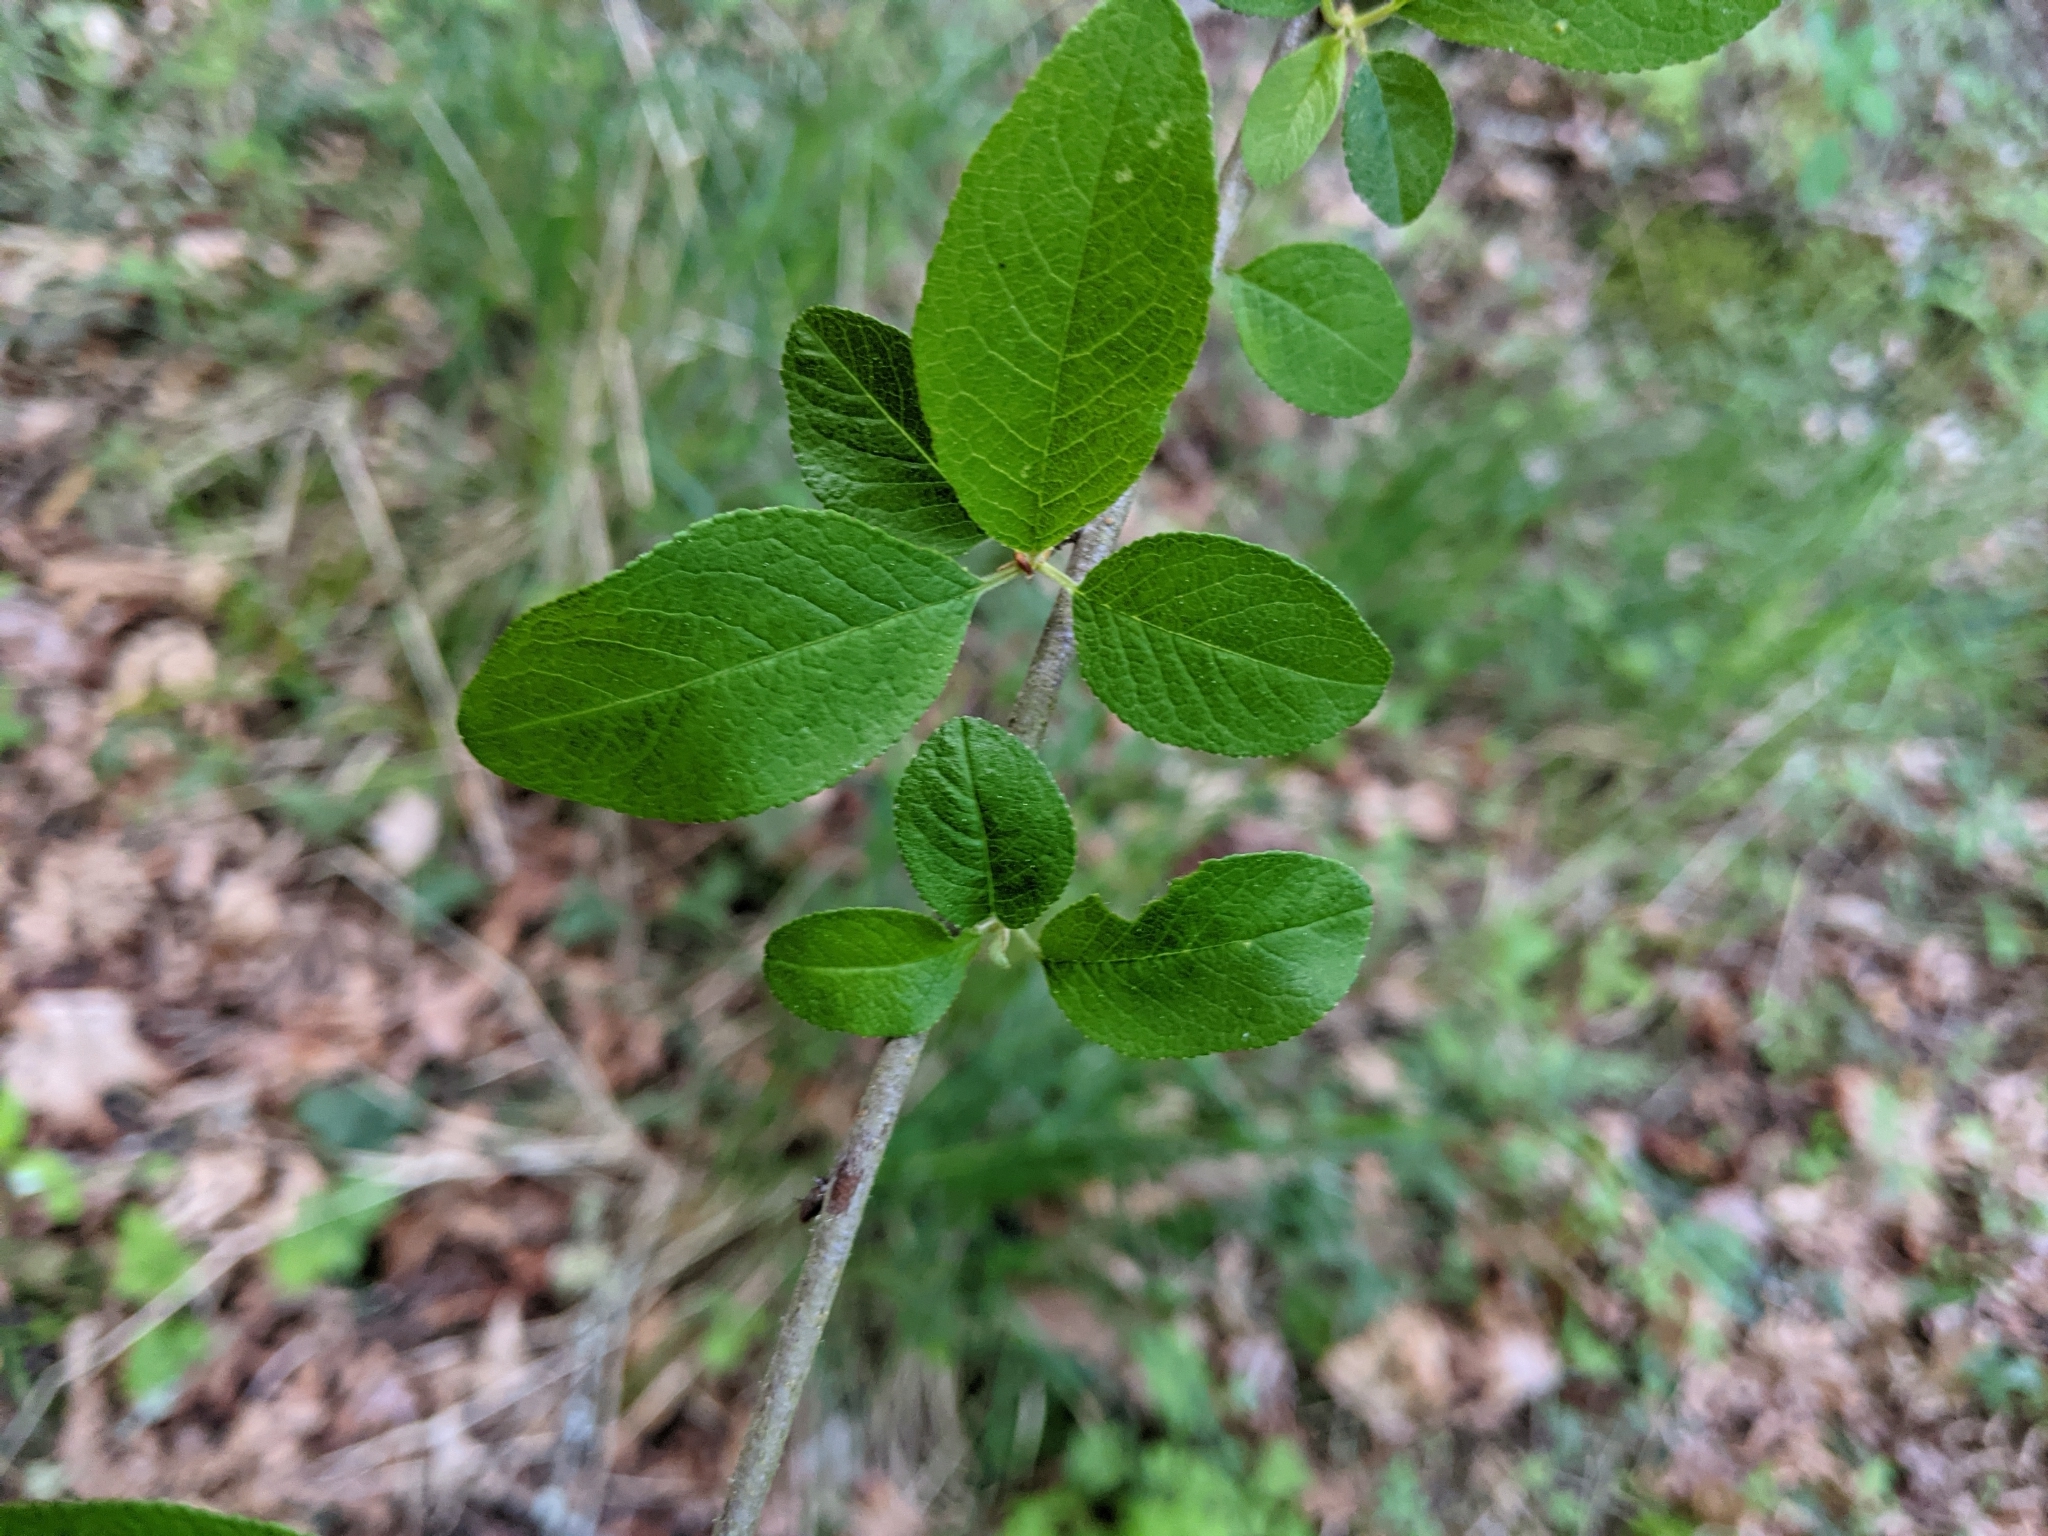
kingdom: Plantae
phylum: Tracheophyta
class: Magnoliopsida
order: Rosales
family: Rosaceae
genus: Prunus
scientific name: Prunus emarginata
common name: Bitter cherry
